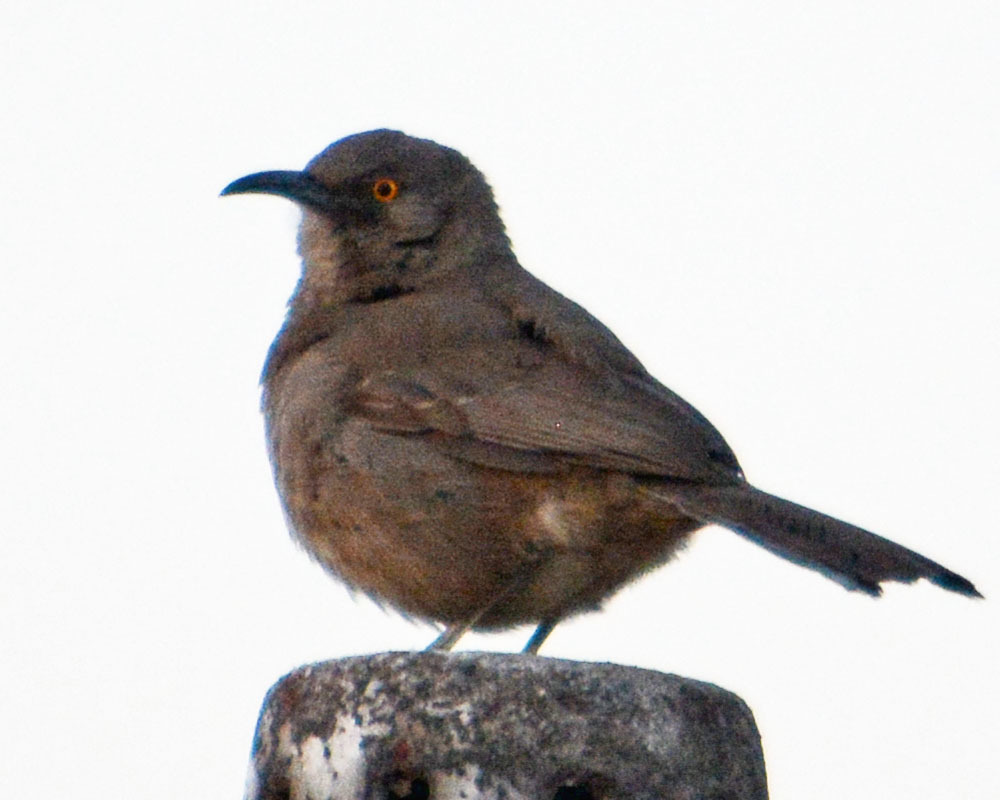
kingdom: Animalia
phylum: Chordata
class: Aves
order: Passeriformes
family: Mimidae
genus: Toxostoma
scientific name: Toxostoma curvirostre
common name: Curve-billed thrasher
